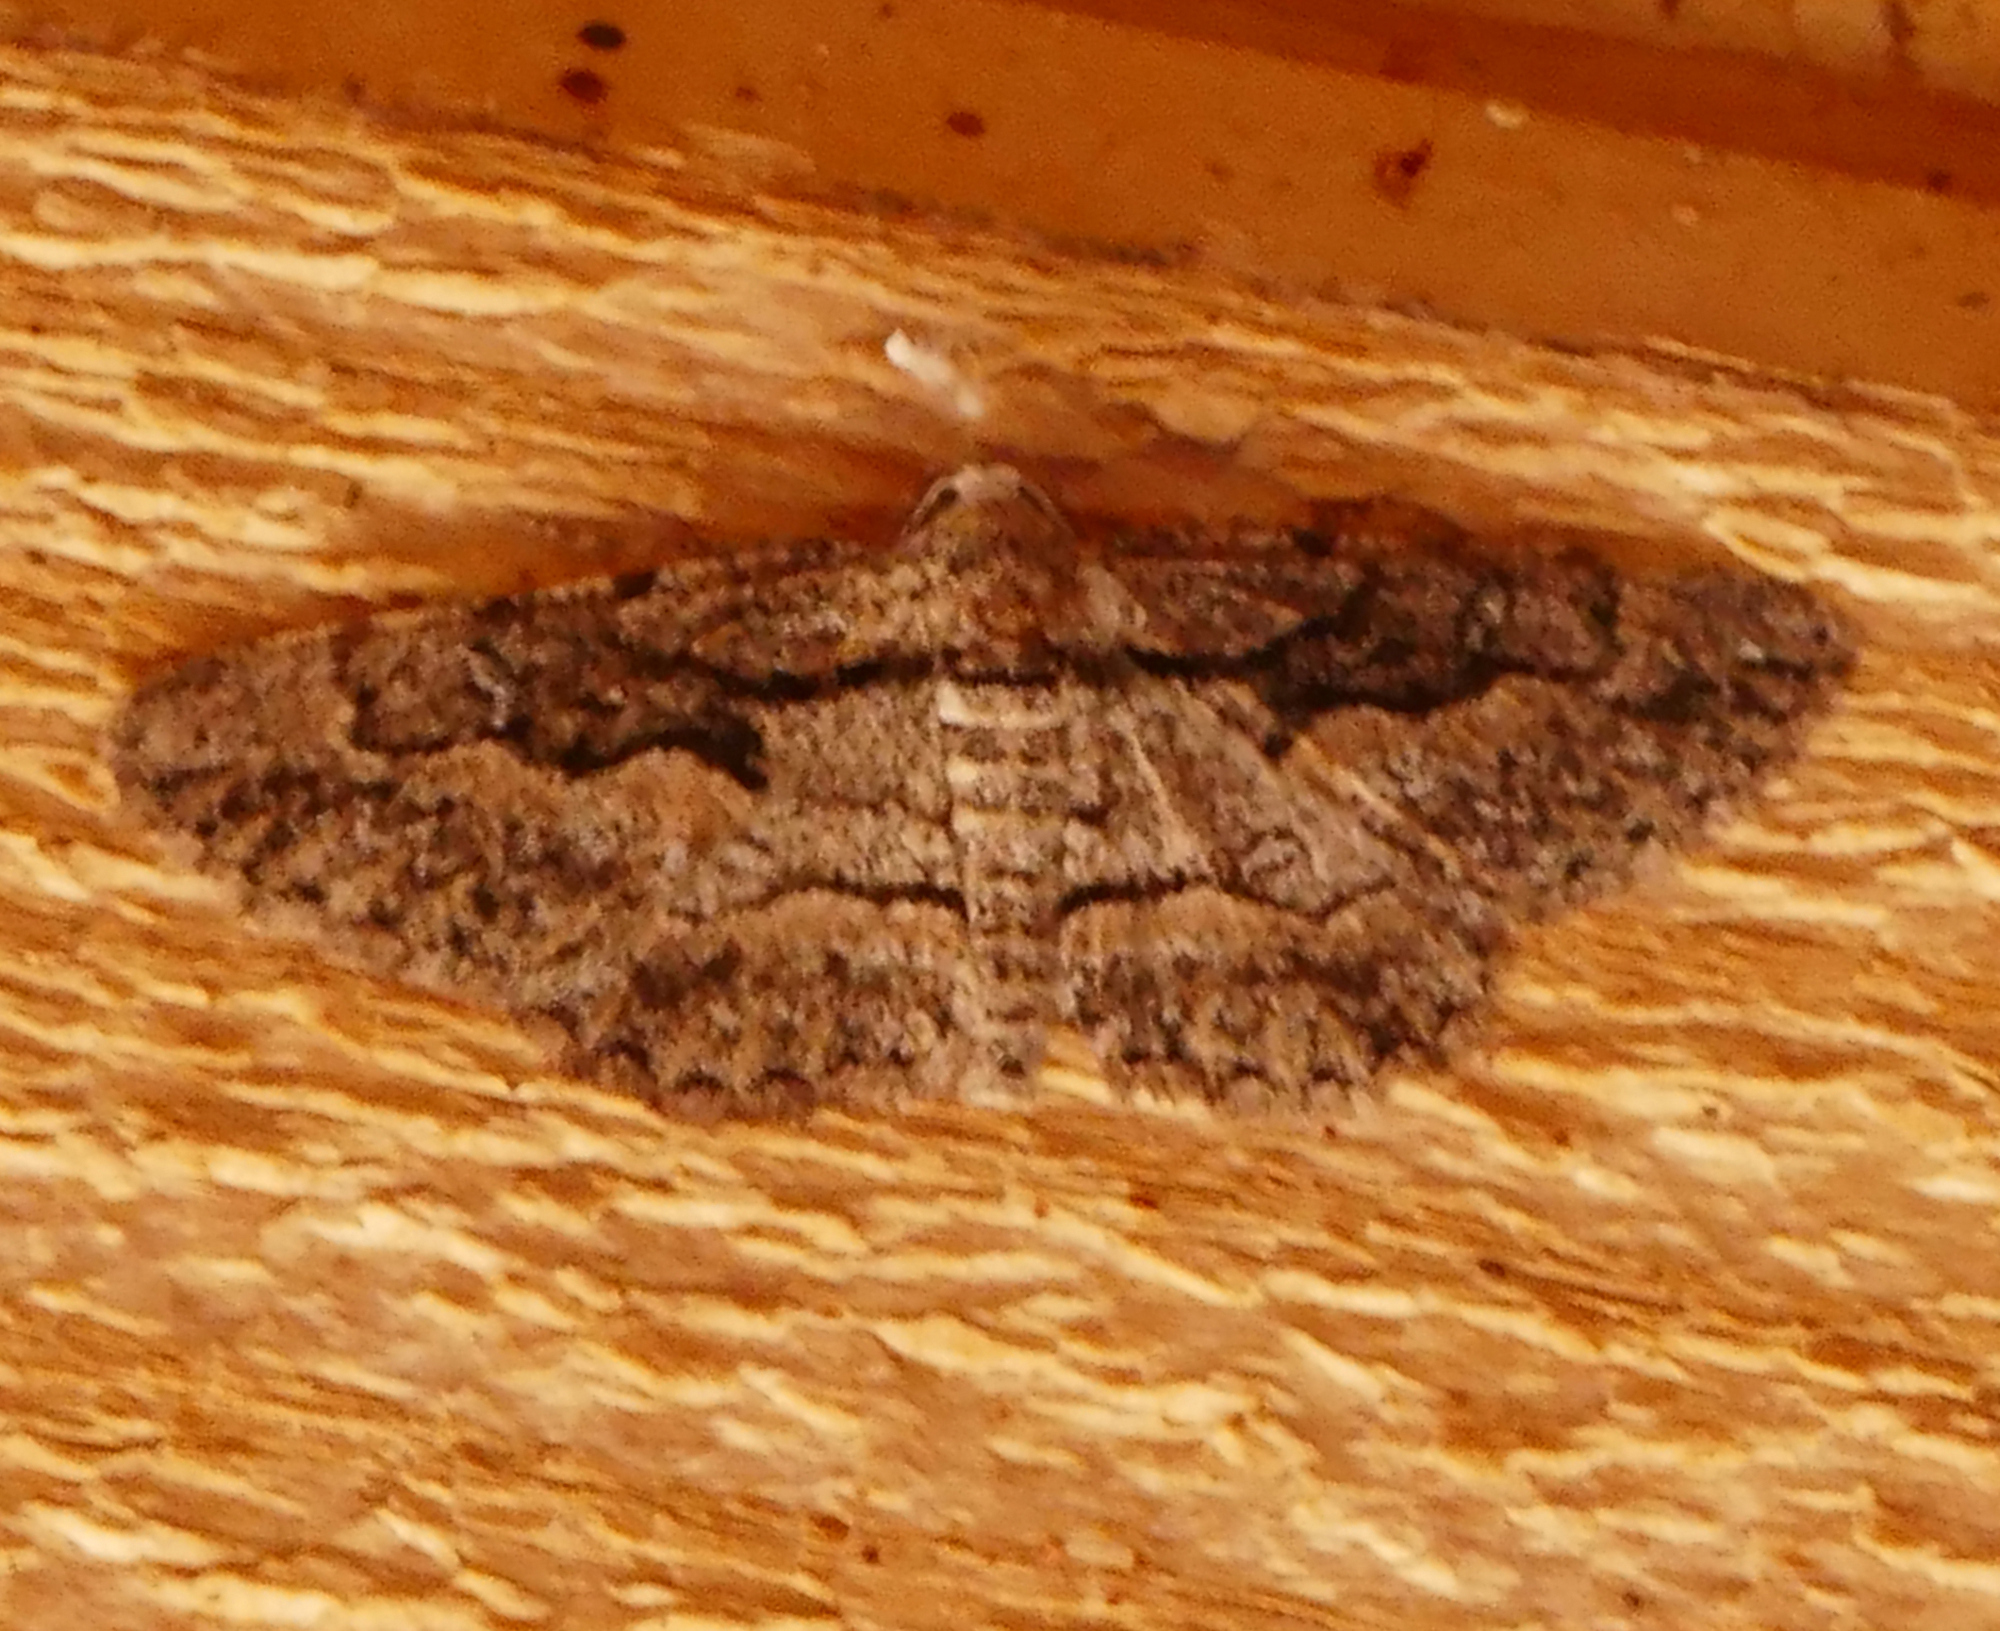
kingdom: Animalia
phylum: Arthropoda
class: Insecta
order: Lepidoptera
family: Geometridae
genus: Iridopsis
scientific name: Iridopsis dataria
